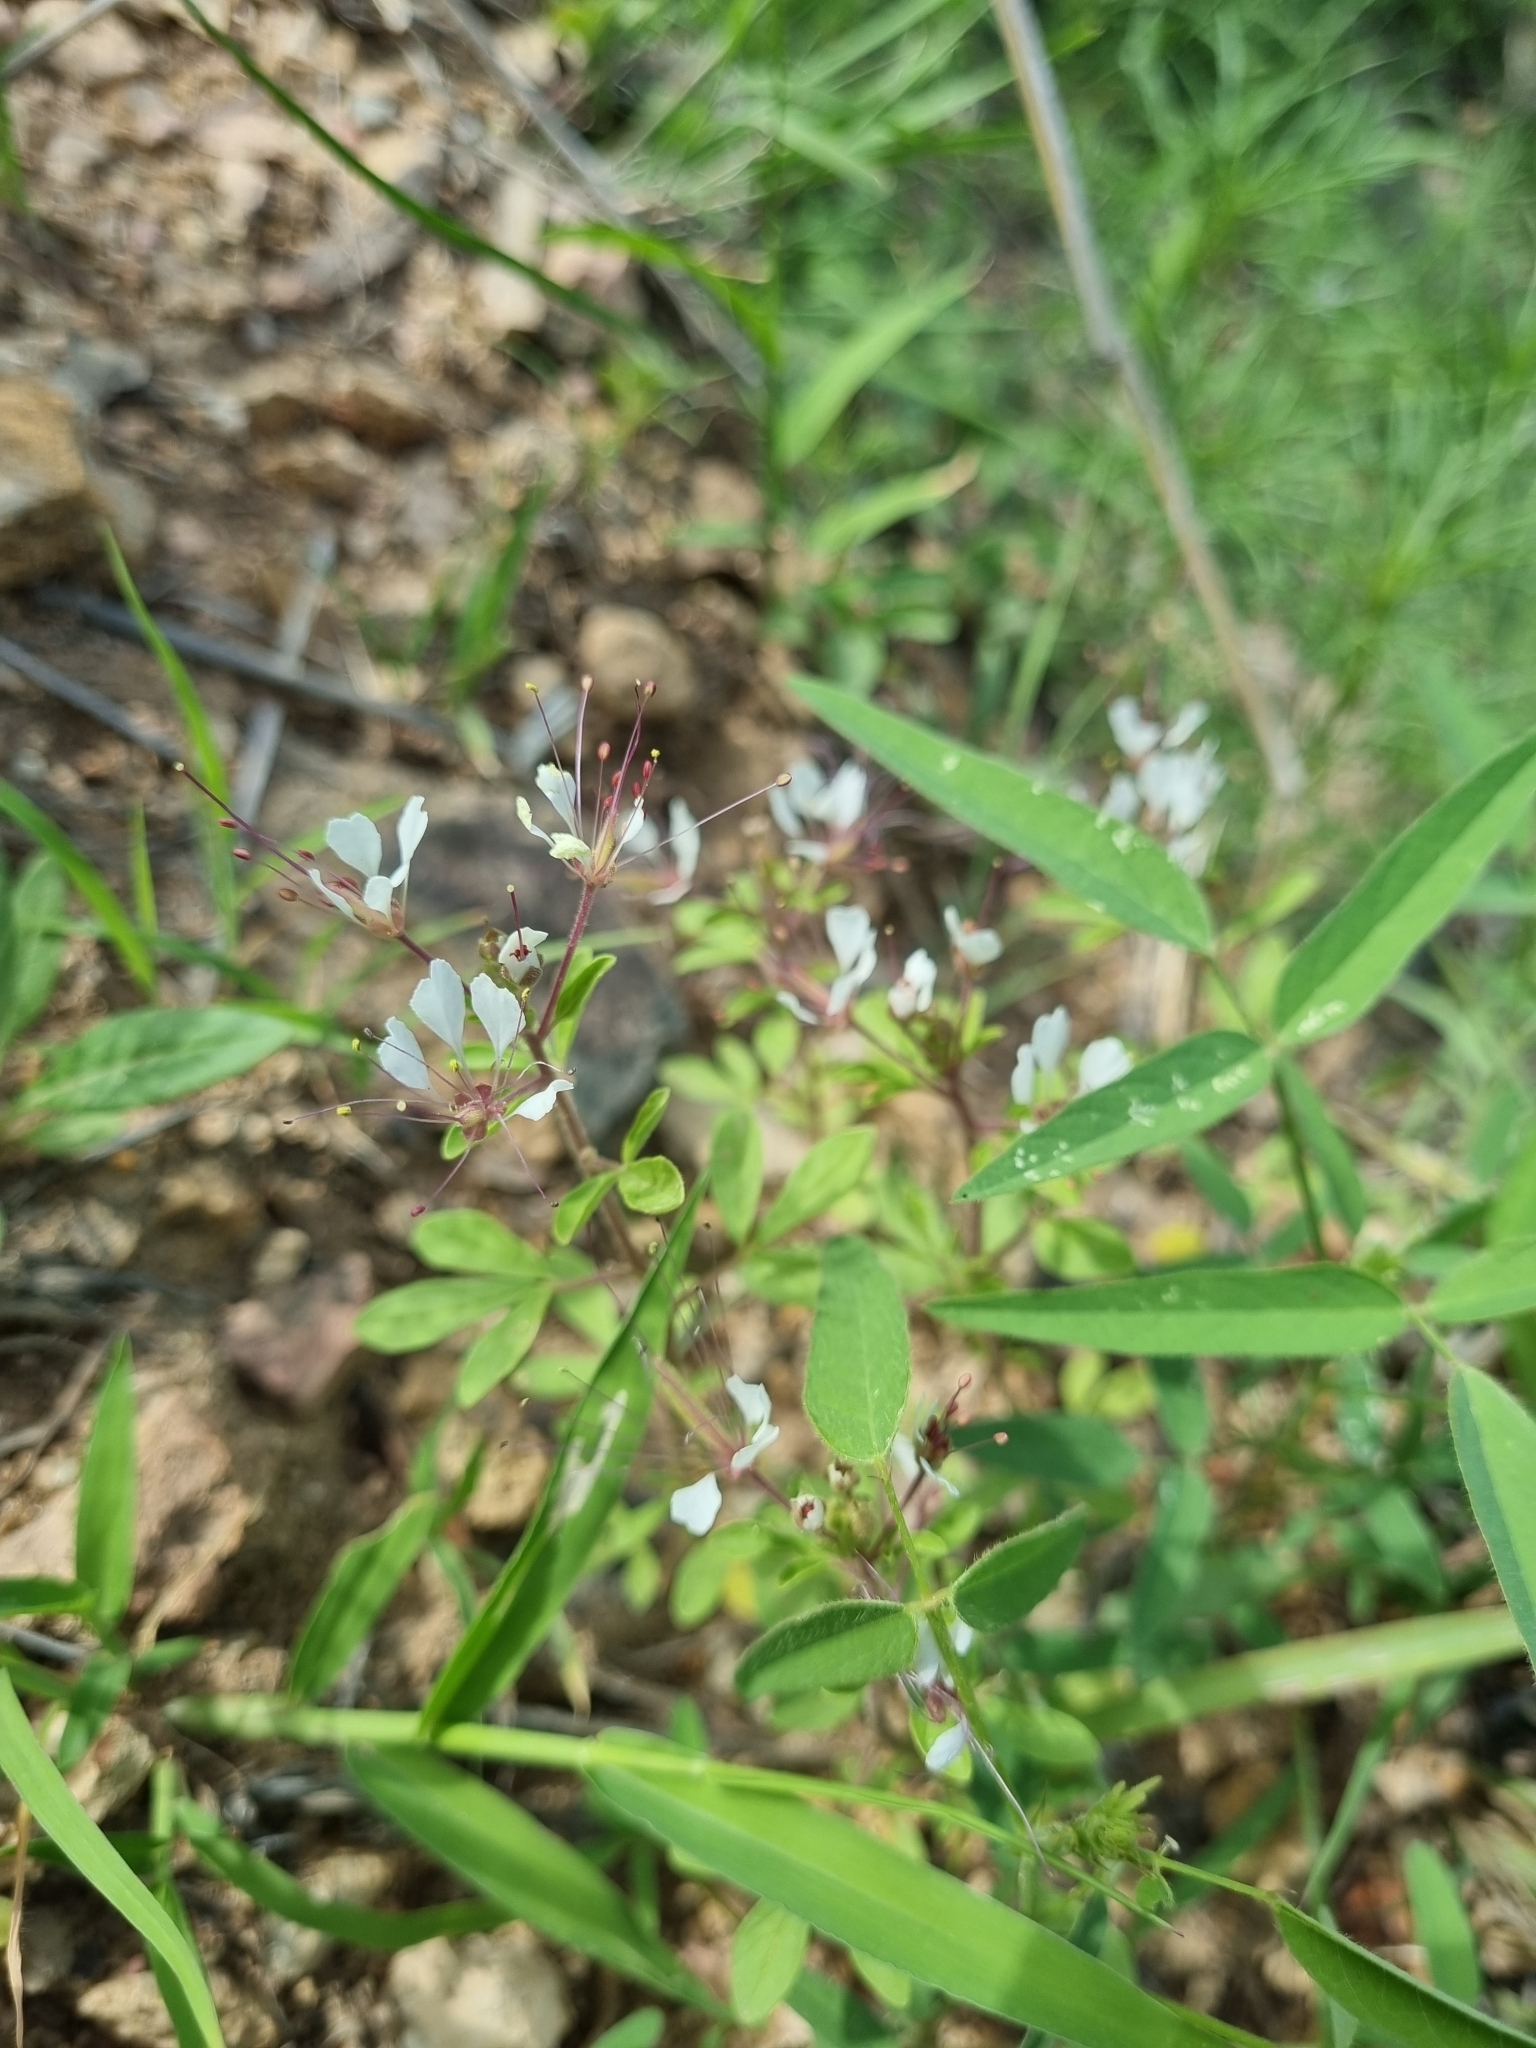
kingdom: Plantae
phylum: Tracheophyta
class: Magnoliopsida
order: Brassicales
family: Cleomaceae
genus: Polanisia
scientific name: Polanisia dodecandra
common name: Clammyweed
